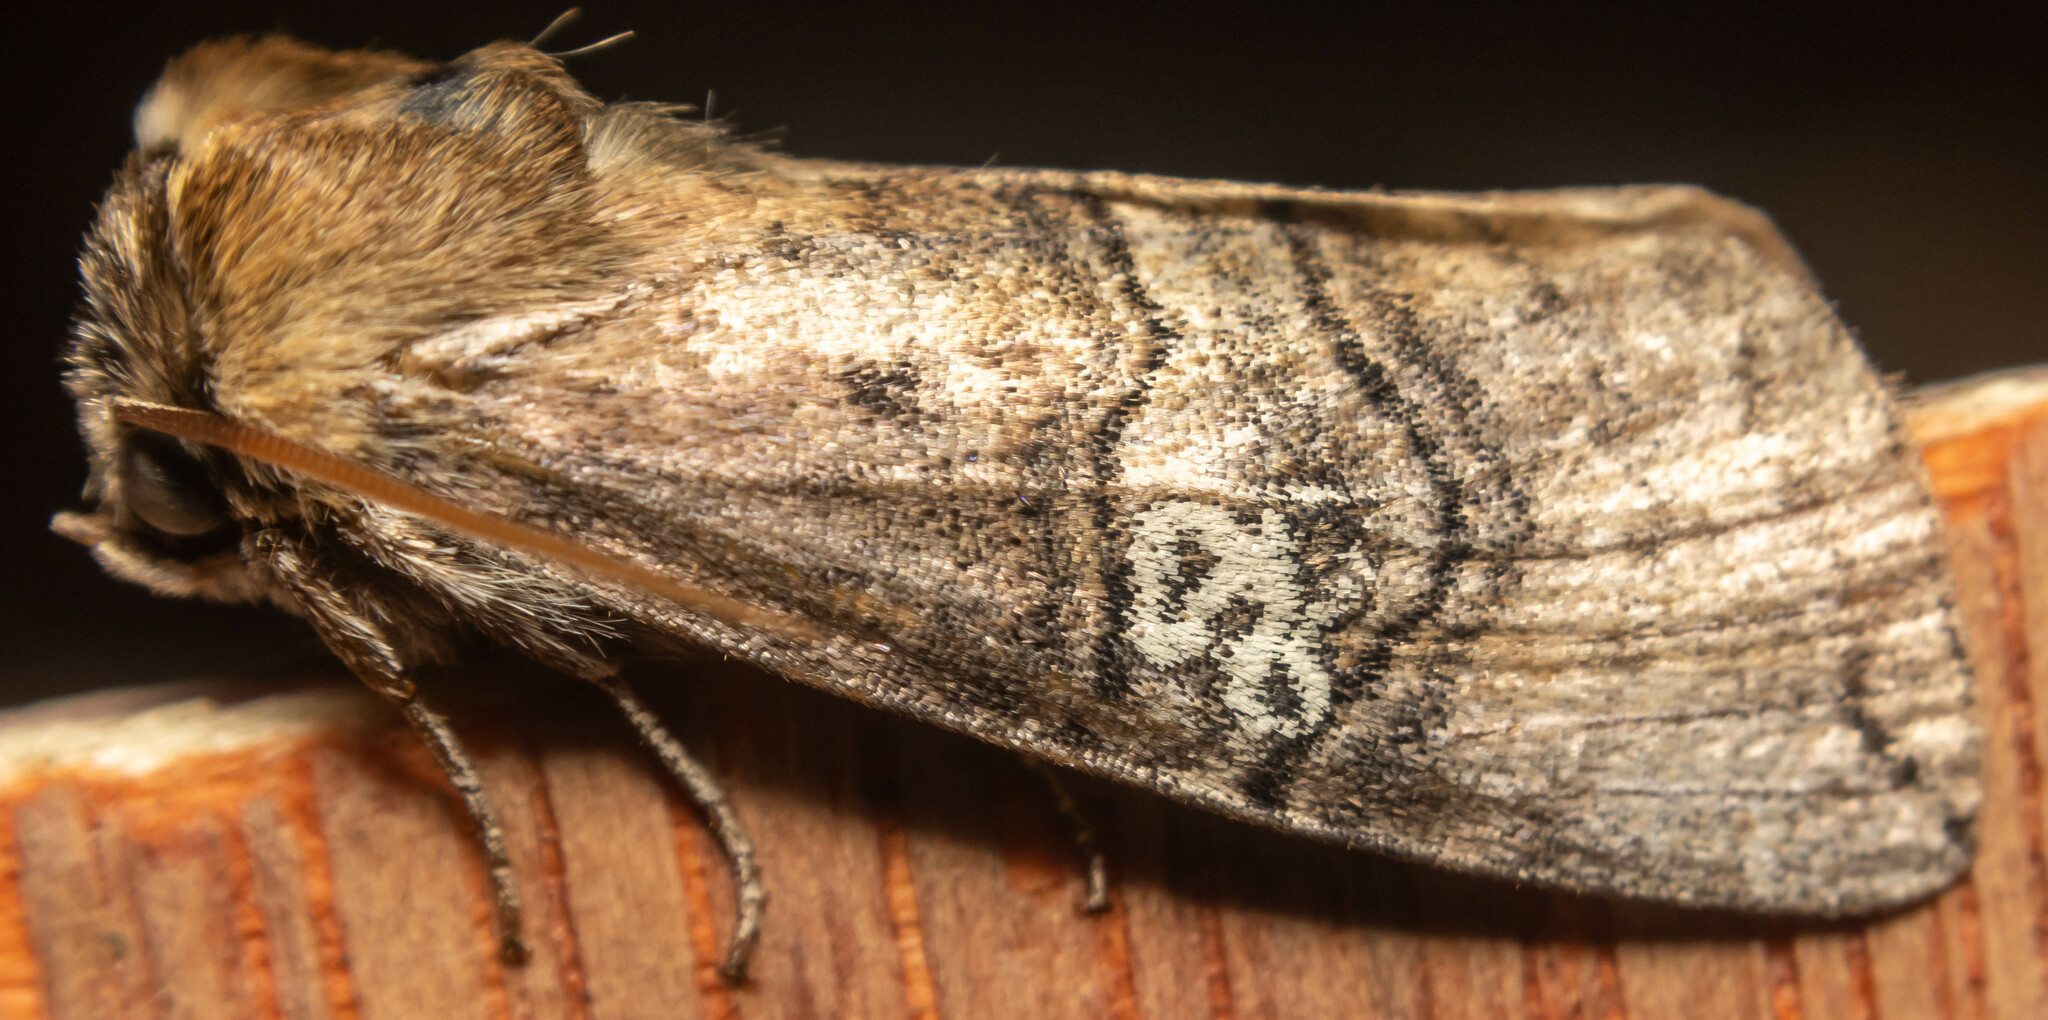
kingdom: Animalia
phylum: Arthropoda
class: Insecta
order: Lepidoptera
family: Drepanidae
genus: Tethea
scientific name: Tethea ocularis
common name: Figure of eighty
